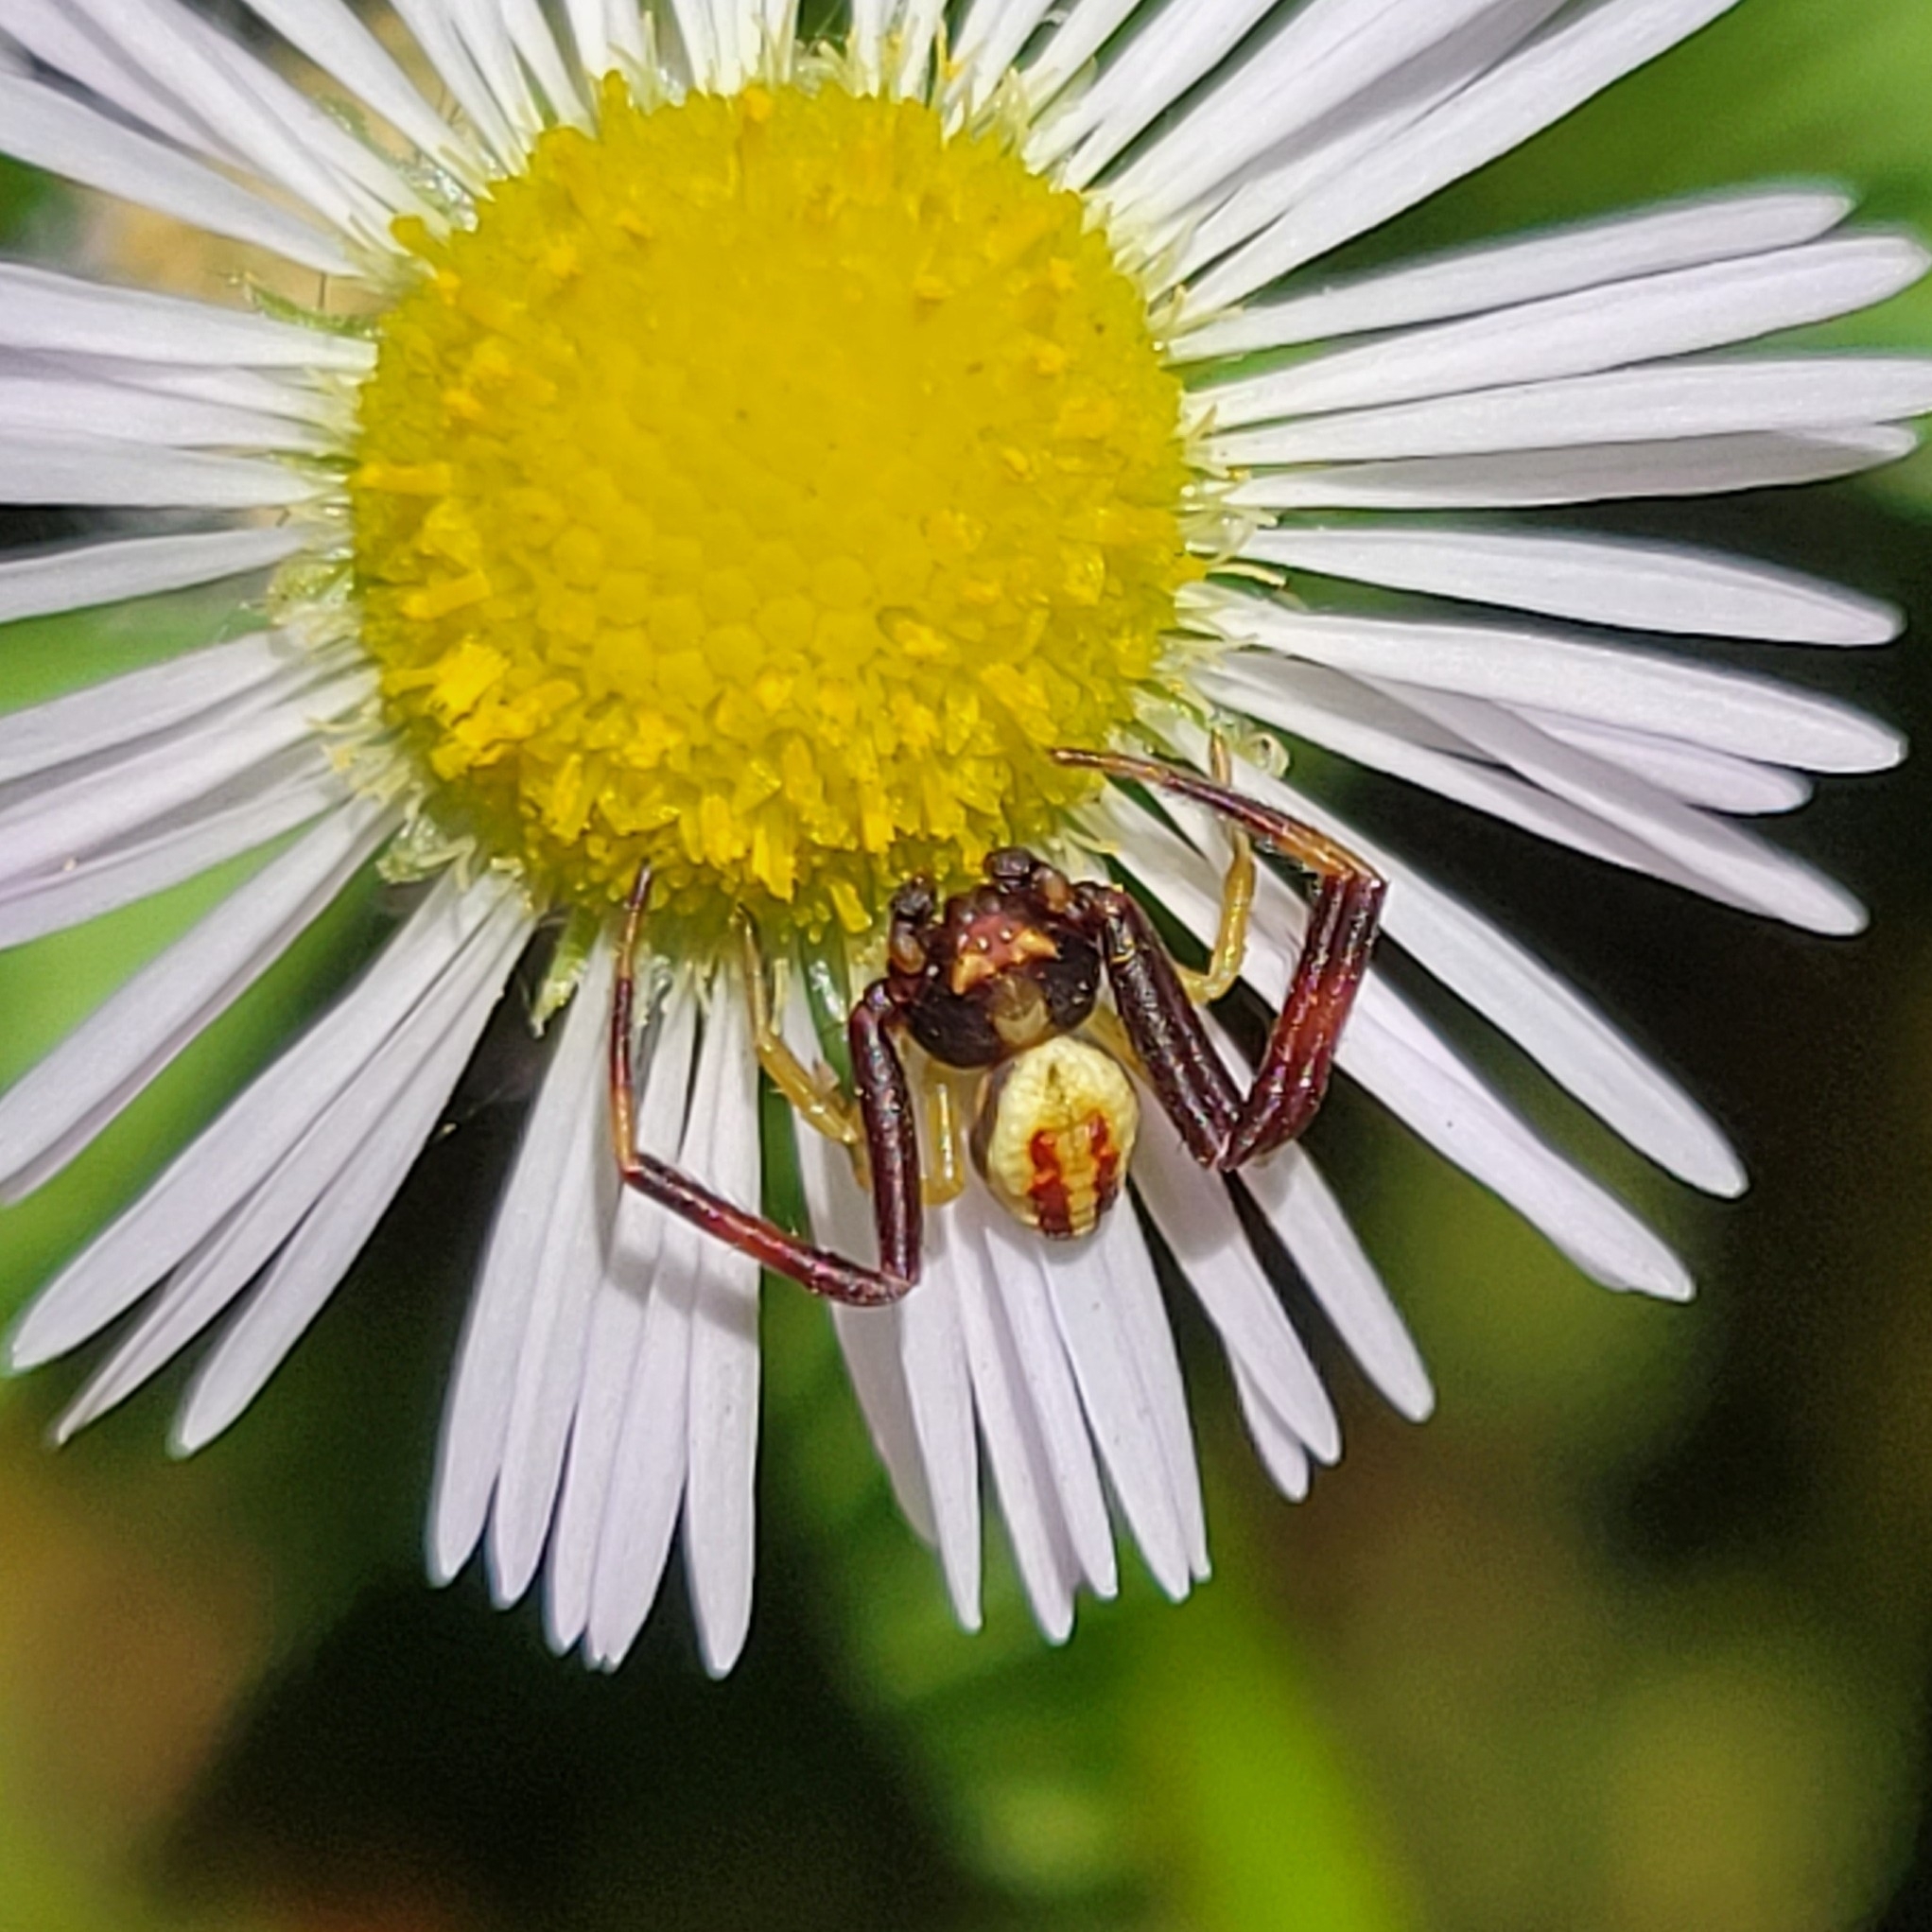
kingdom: Animalia
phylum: Arthropoda
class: Arachnida
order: Araneae
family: Thomisidae
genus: Misumena
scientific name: Misumena vatia
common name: Goldenrod crab spider
